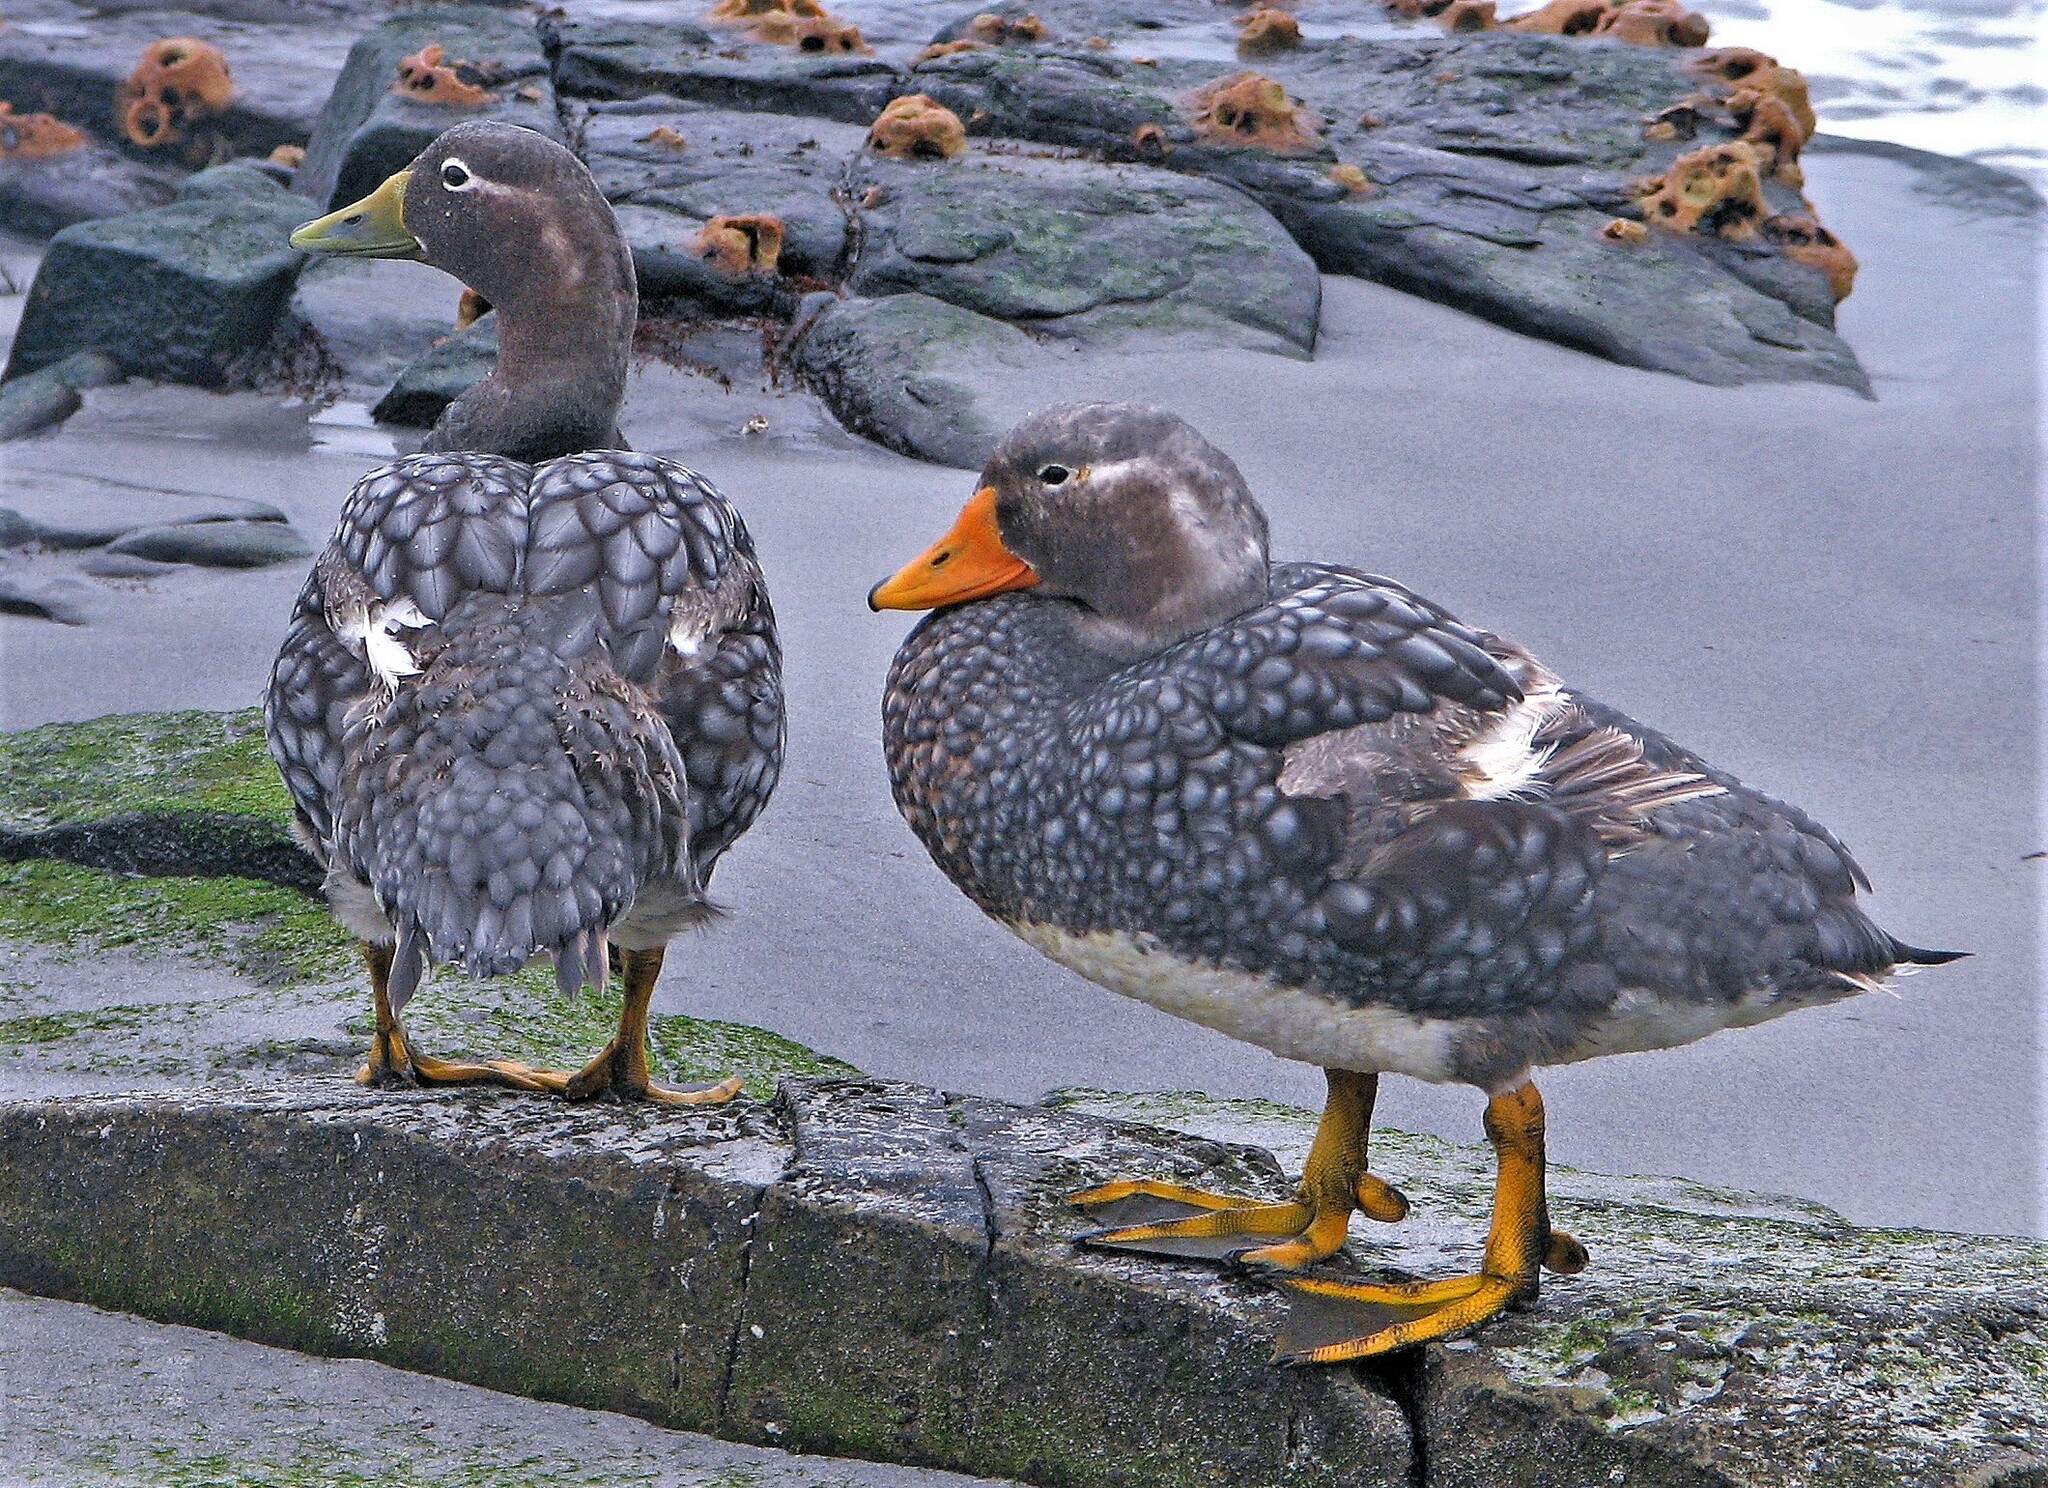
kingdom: Animalia
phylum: Chordata
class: Aves
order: Anseriformes
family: Anatidae
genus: Tachyeres
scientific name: Tachyeres brachypterus
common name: Falkland steamer duck
